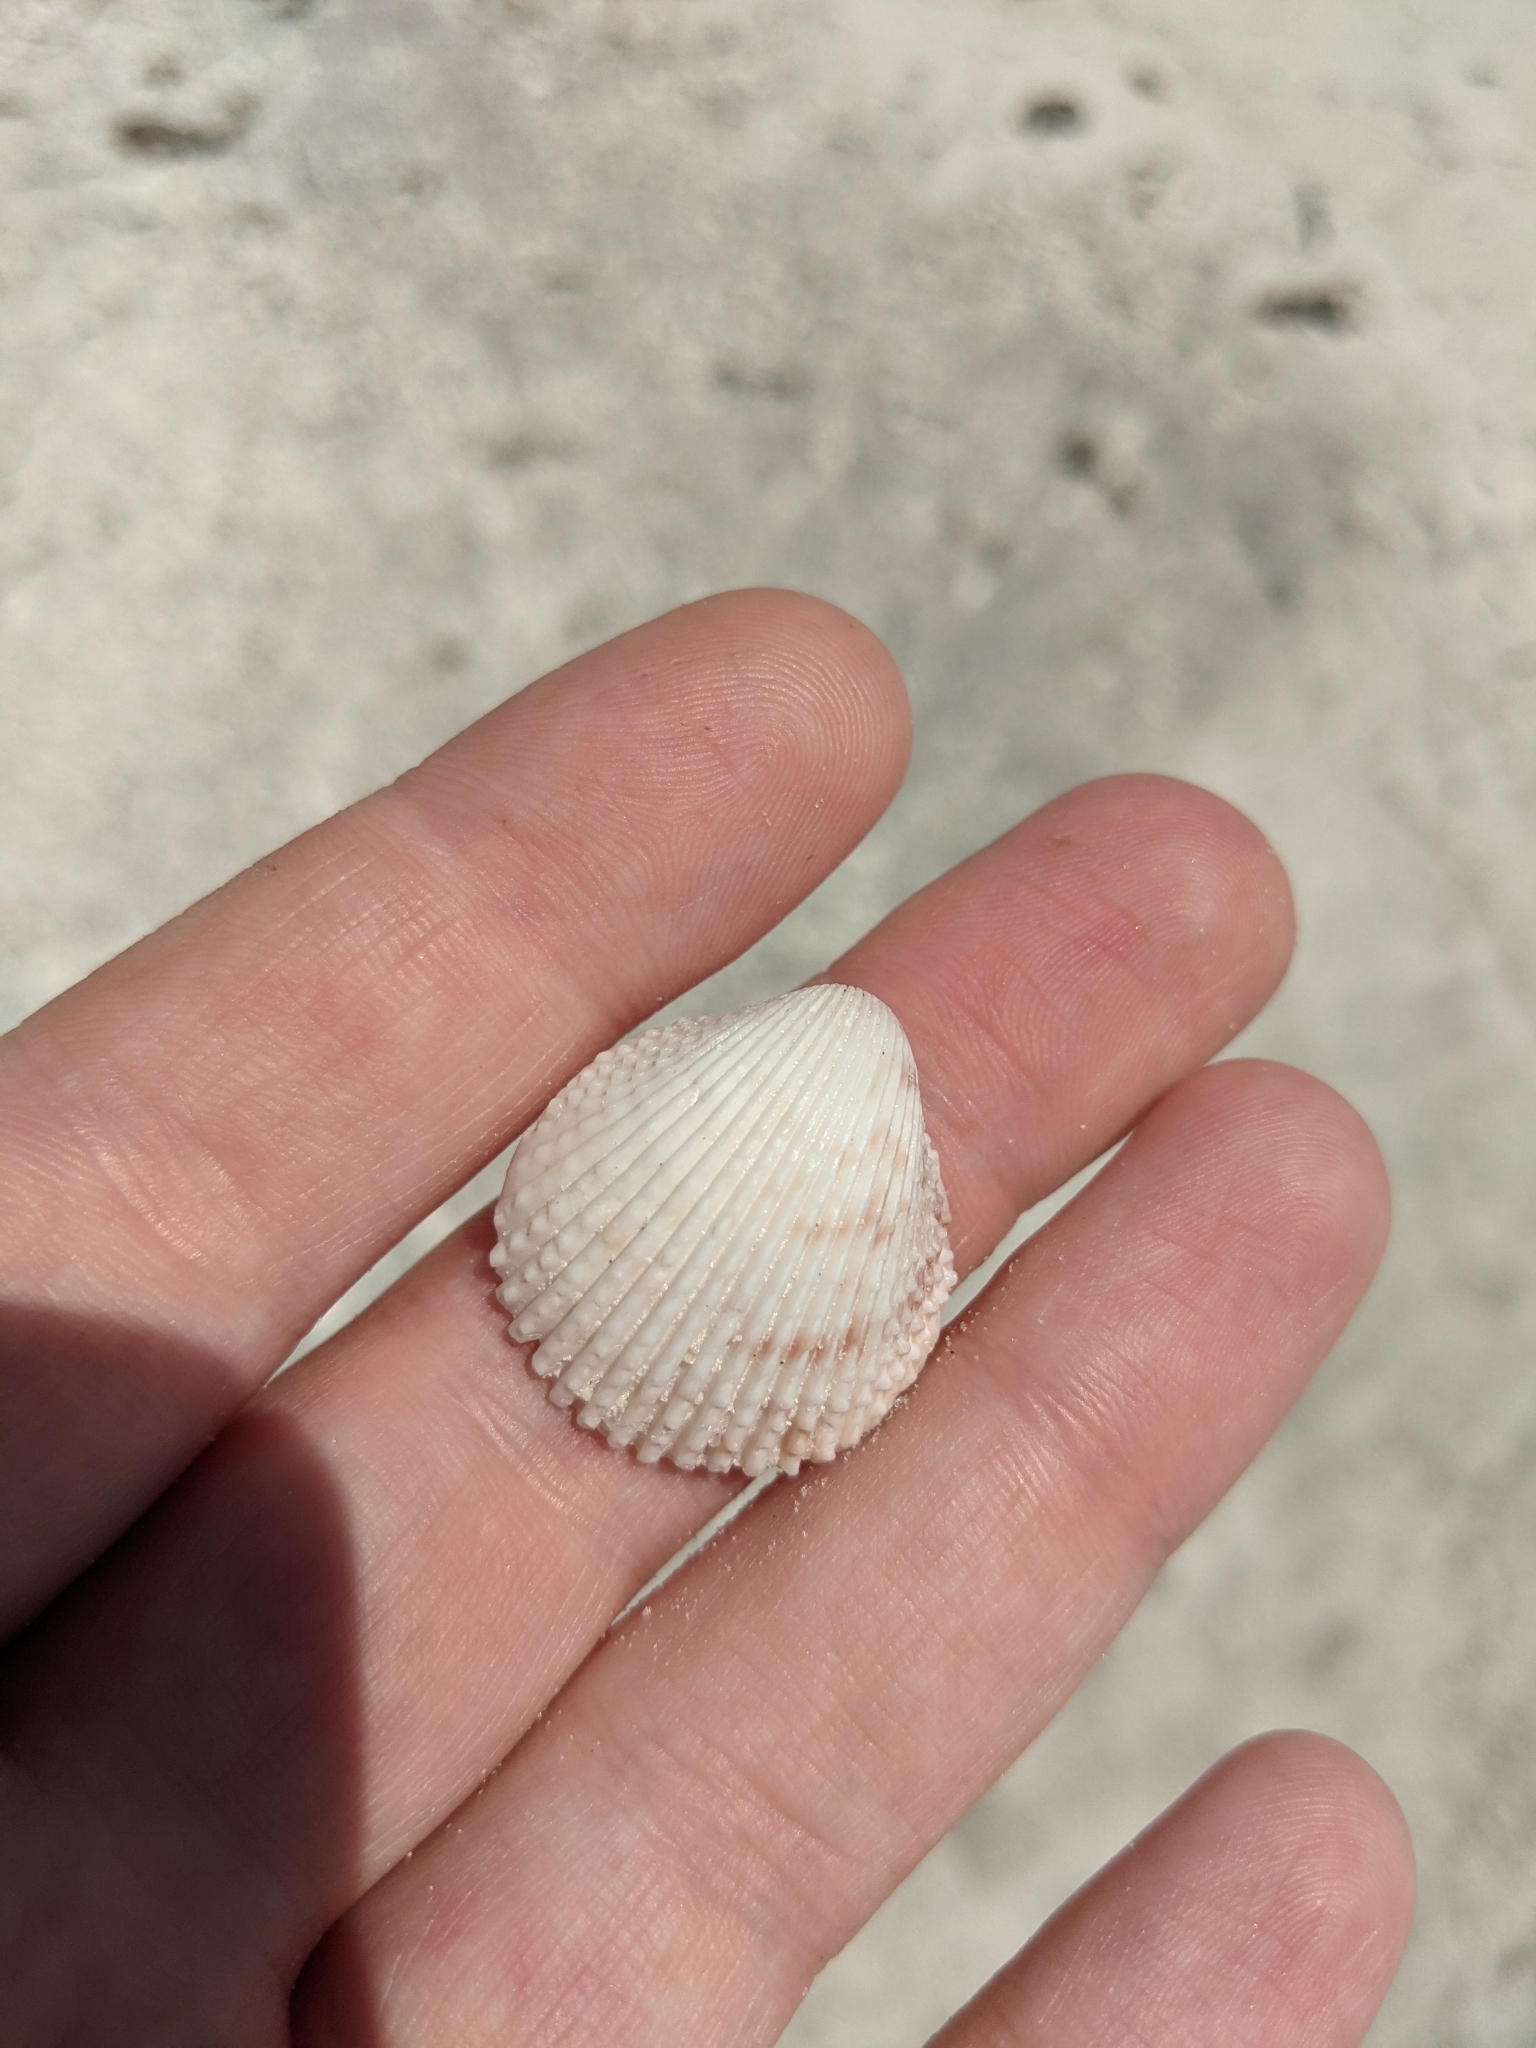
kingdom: Animalia
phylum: Mollusca
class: Bivalvia
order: Cardiida
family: Cardiidae
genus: Trachycardium
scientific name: Trachycardium egmontianum
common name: Florida pricklycockle
